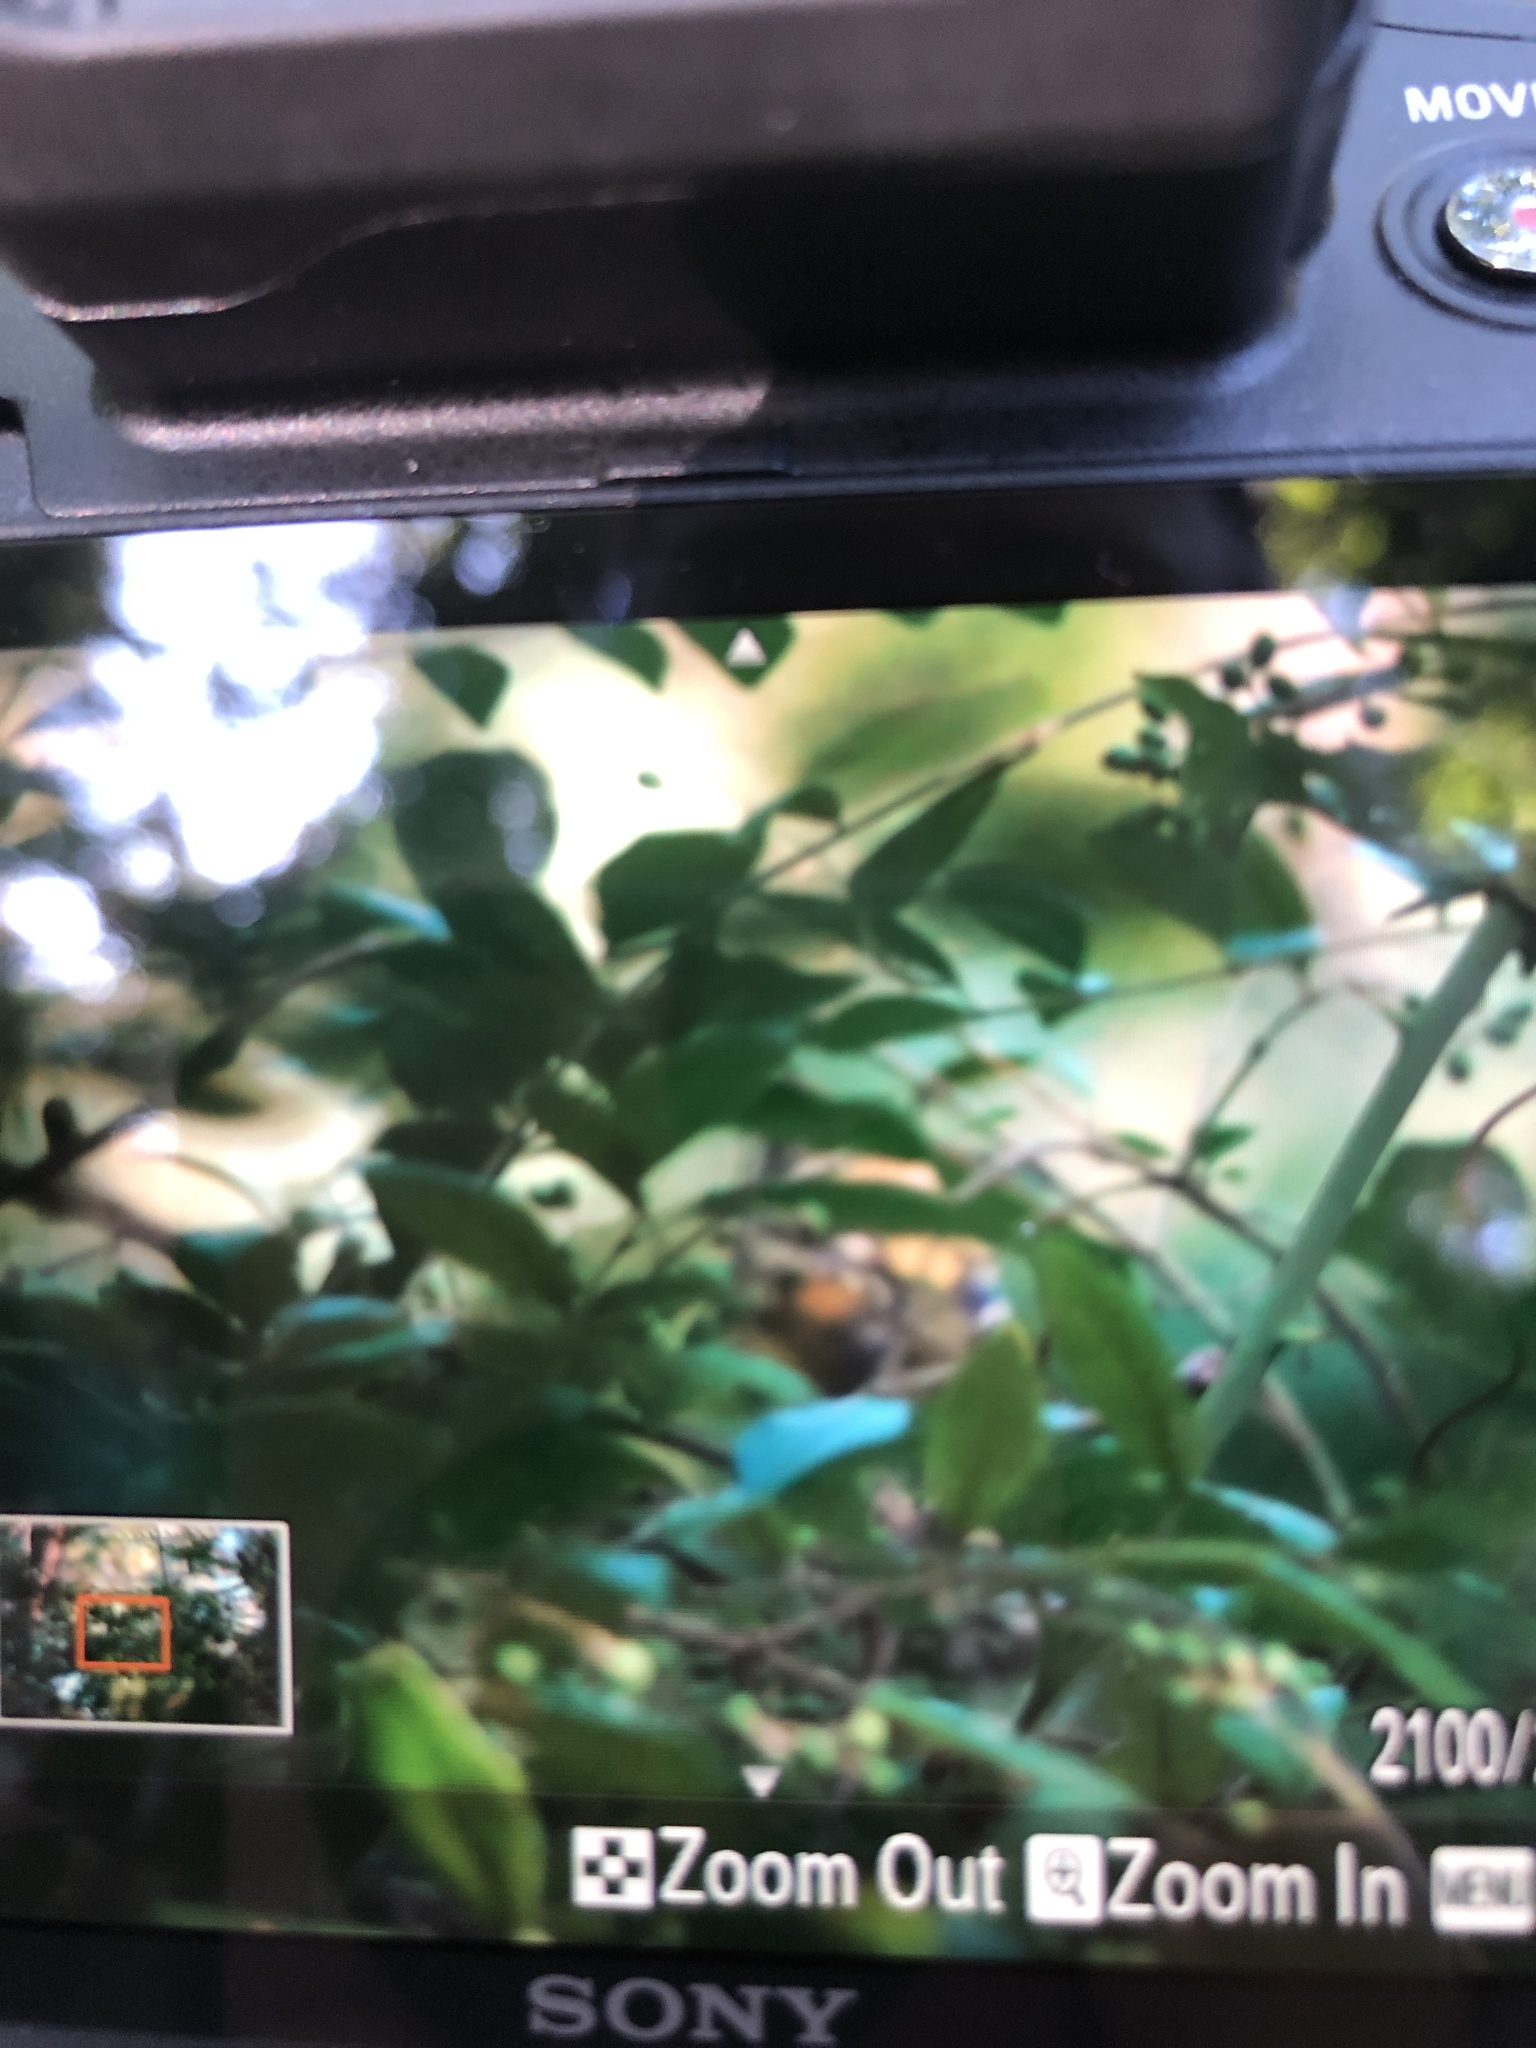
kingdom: Animalia
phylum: Chordata
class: Aves
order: Passeriformes
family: Vireonidae
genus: Vireo
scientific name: Vireo griseus
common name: White-eyed vireo
